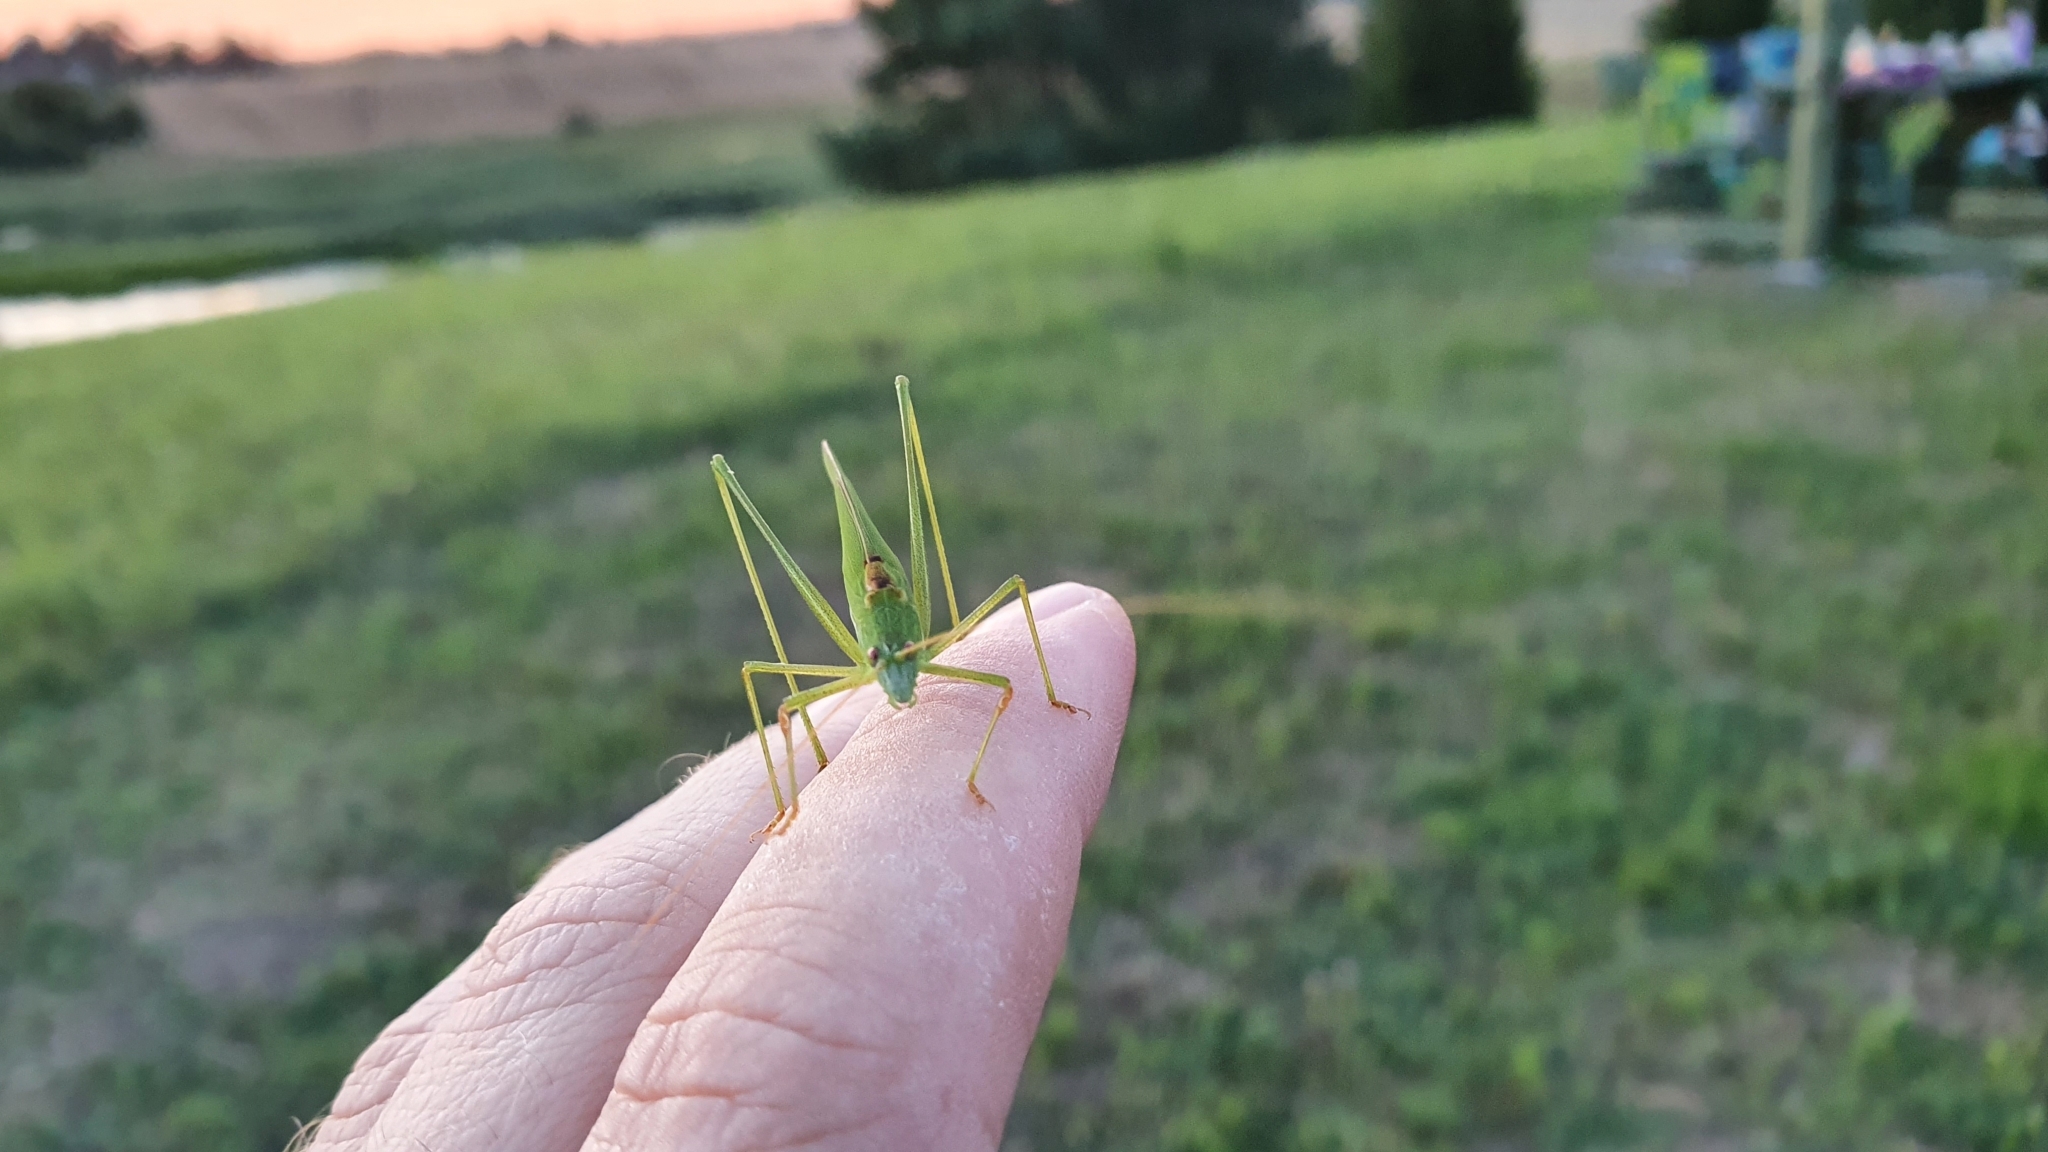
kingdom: Animalia
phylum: Arthropoda
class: Insecta
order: Orthoptera
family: Tettigoniidae
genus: Phaneroptera
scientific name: Phaneroptera falcata
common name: Sickle-bearing bush-cricket
